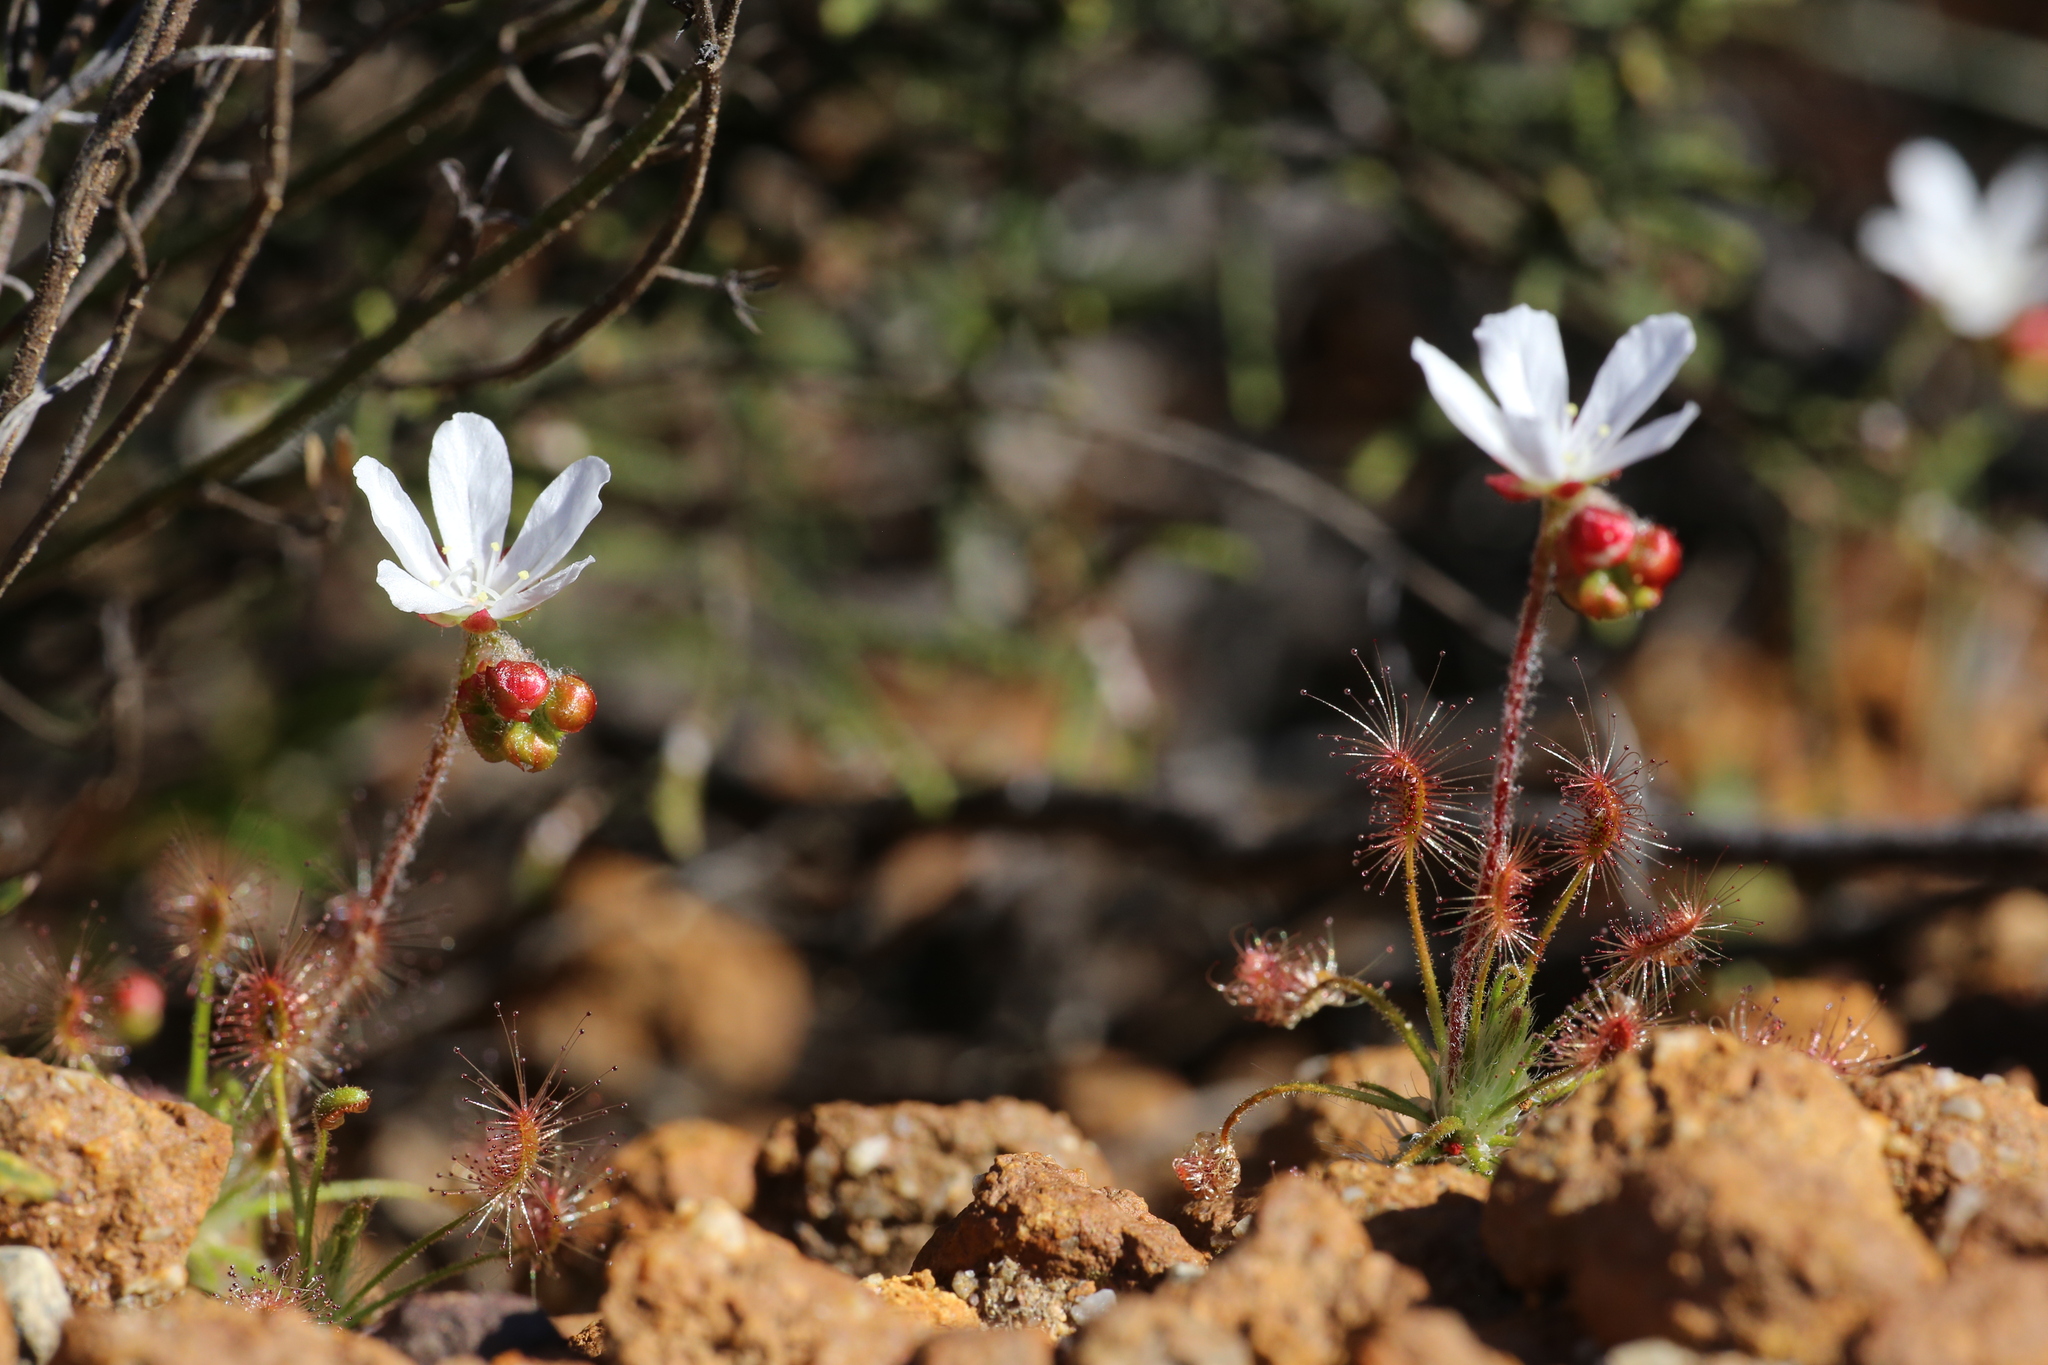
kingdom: Plantae
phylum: Tracheophyta
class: Magnoliopsida
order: Caryophyllales
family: Droseraceae
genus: Drosera
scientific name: Drosera scorpioides
